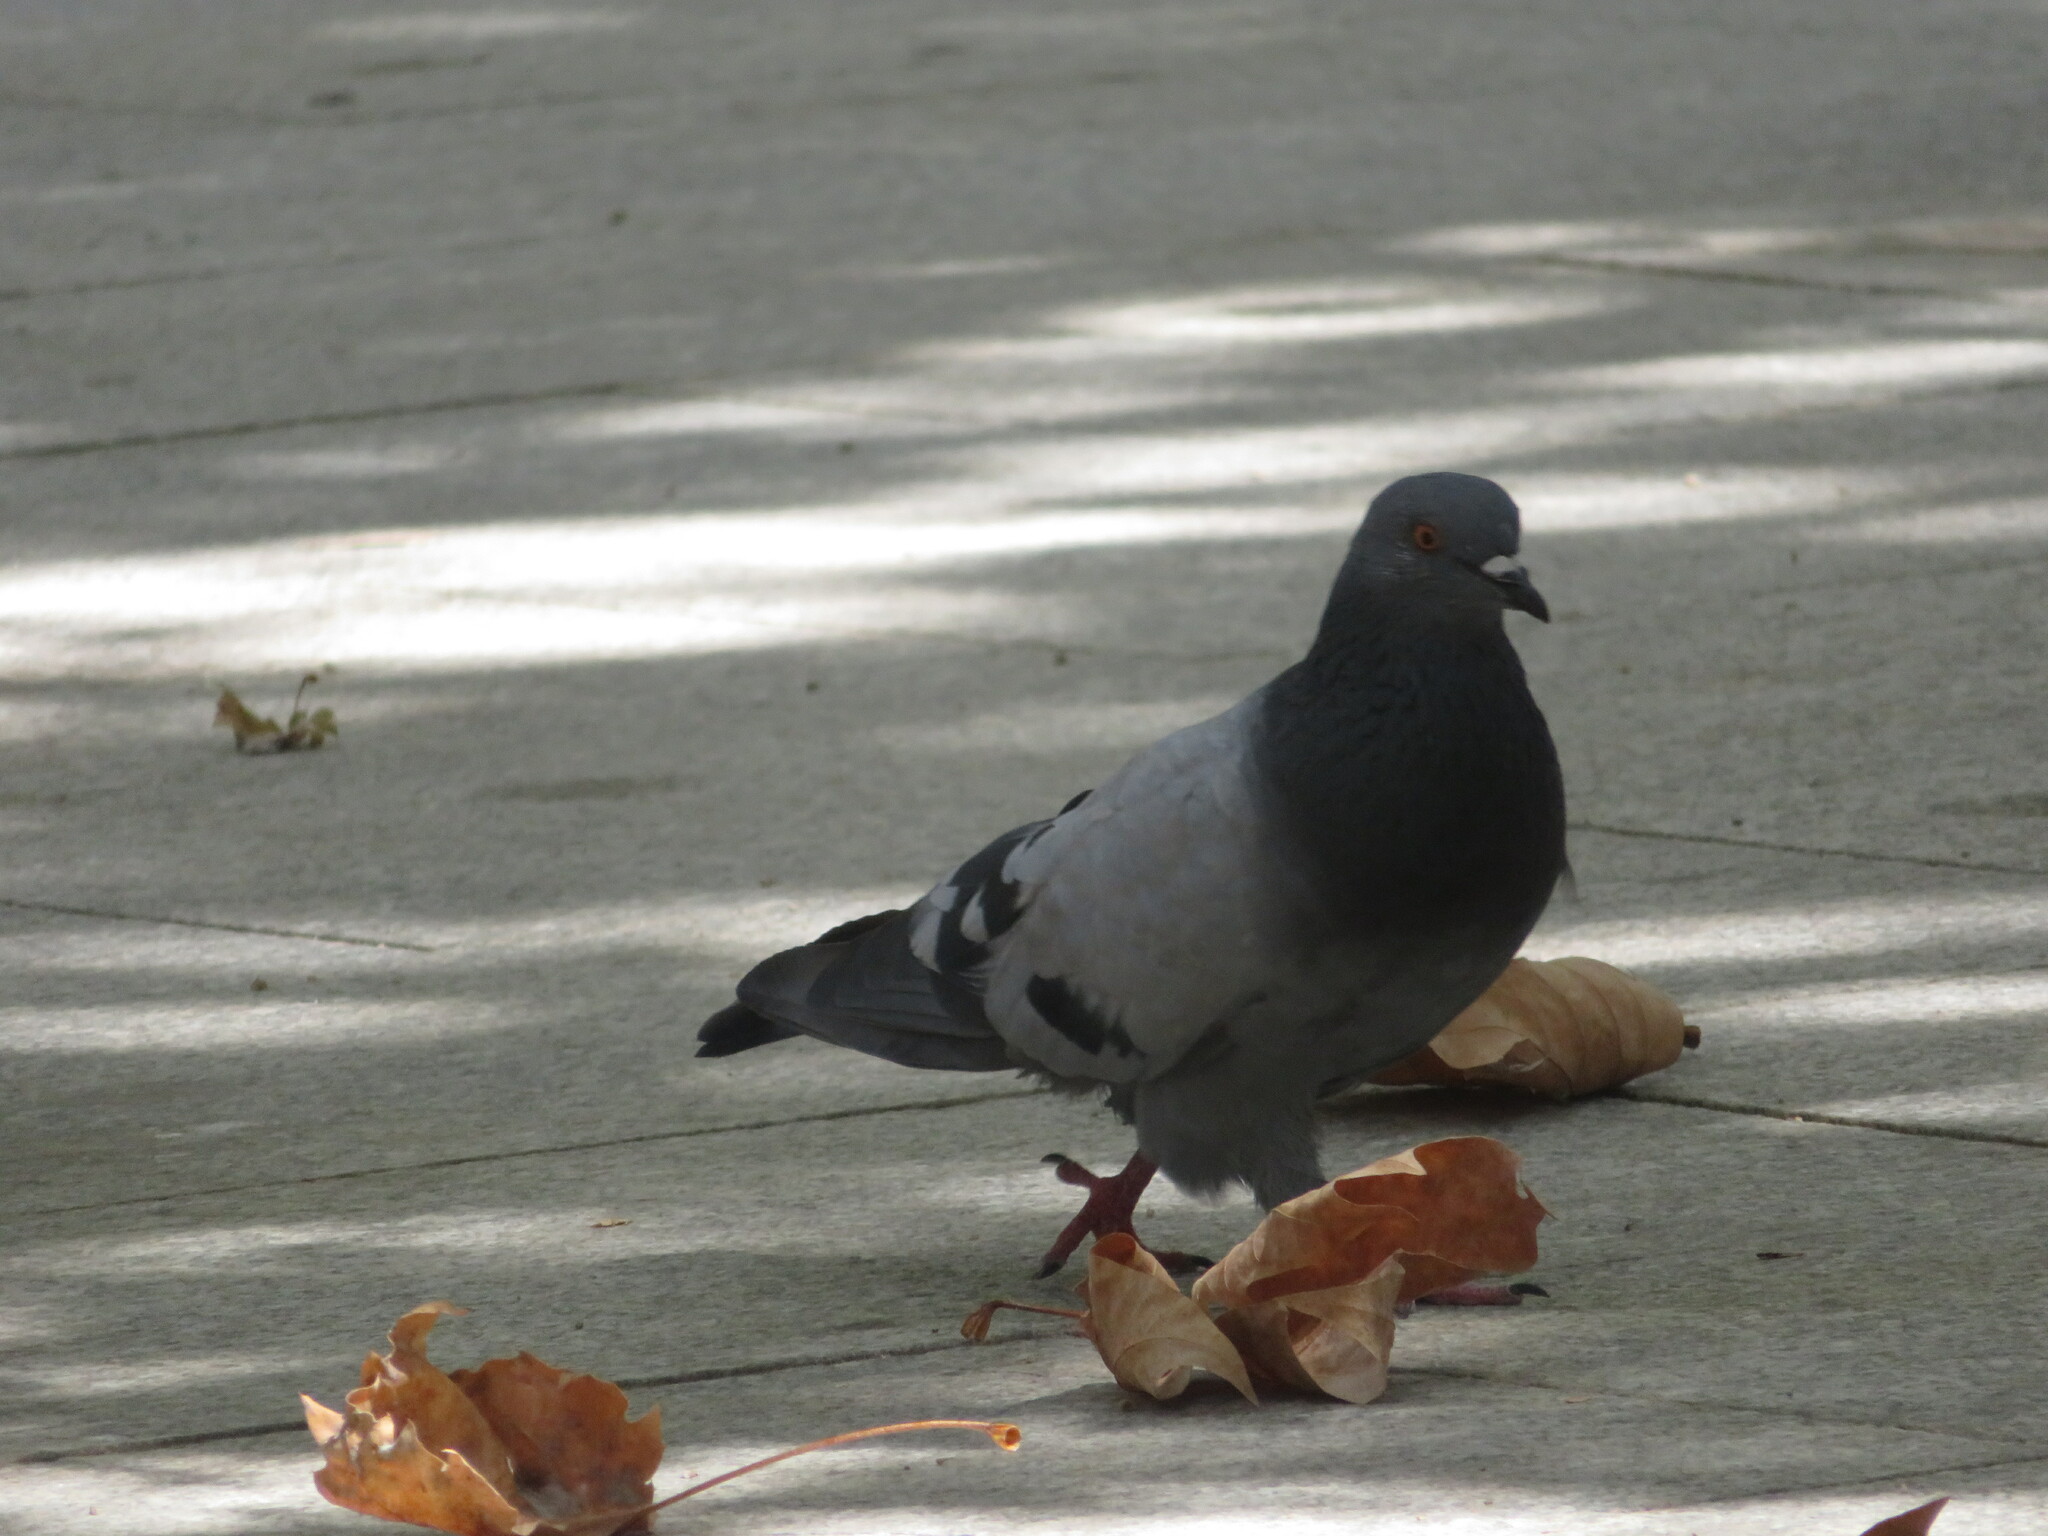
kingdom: Animalia
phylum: Chordata
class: Aves
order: Columbiformes
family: Columbidae
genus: Columba
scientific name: Columba livia
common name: Rock pigeon
